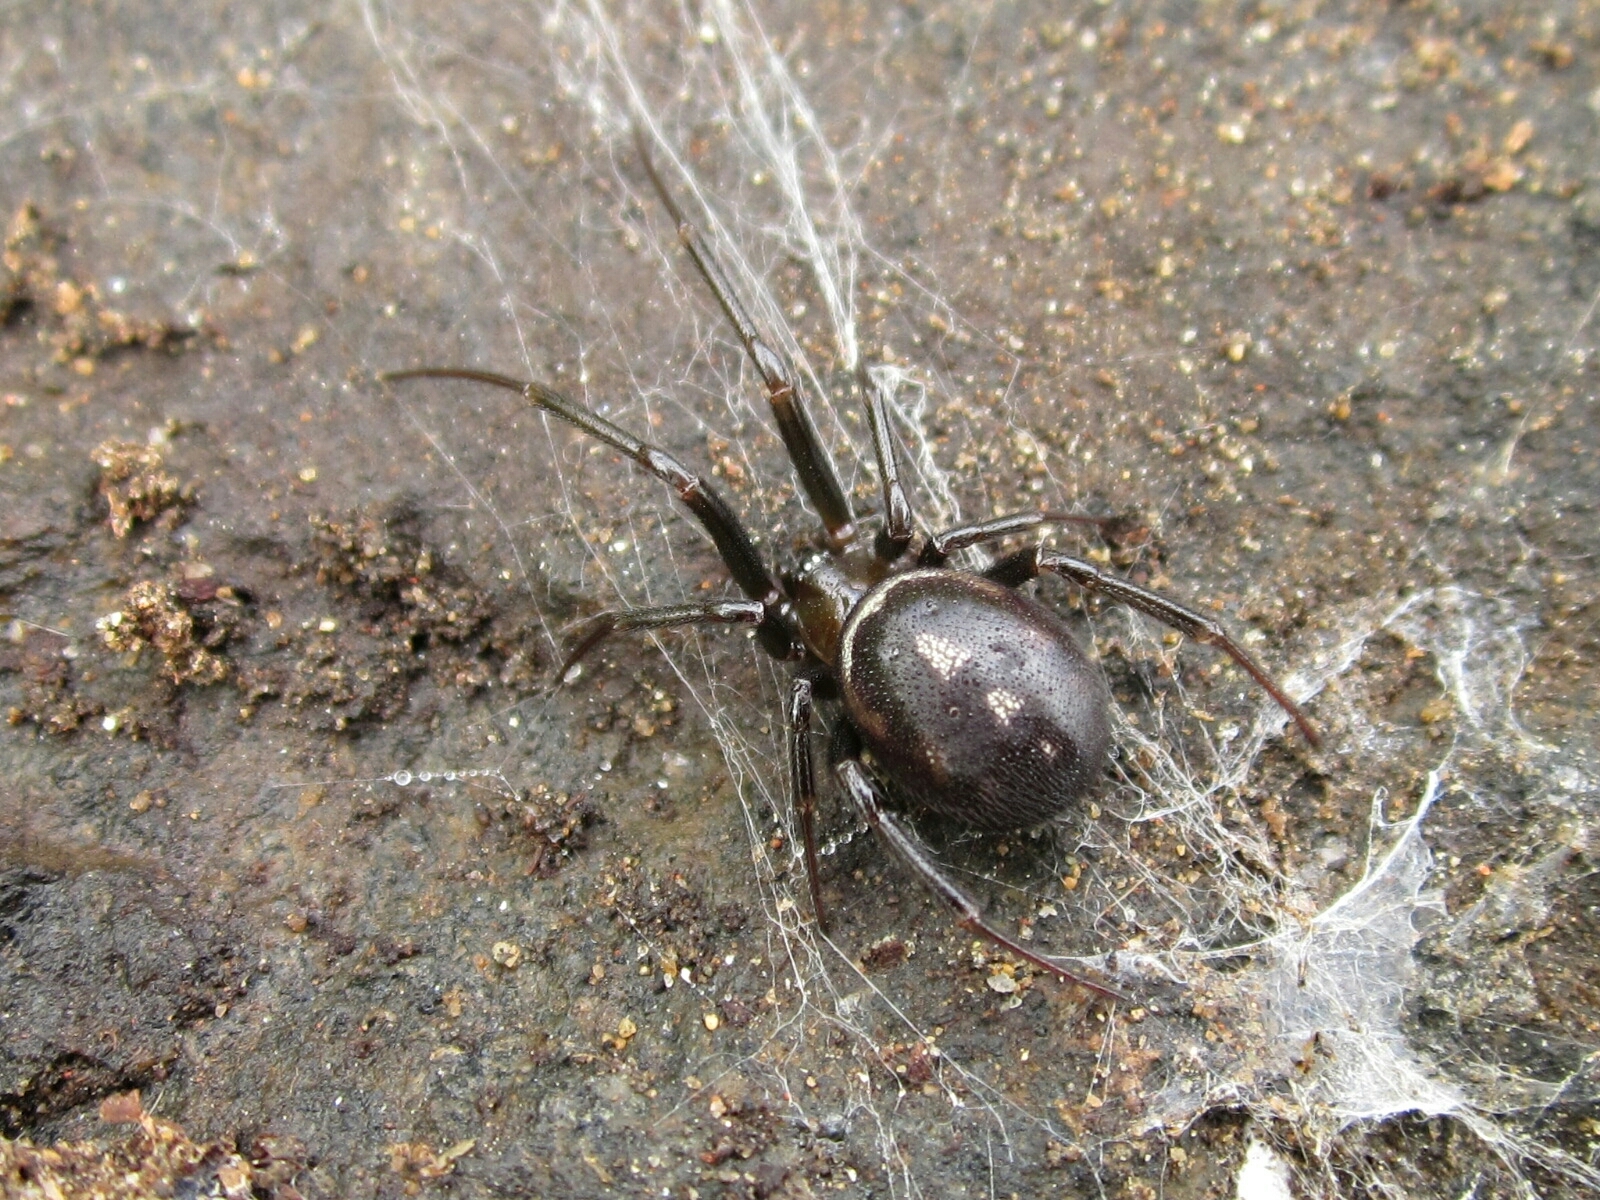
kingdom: Animalia
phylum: Arthropoda
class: Arachnida
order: Araneae
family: Theridiidae
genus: Steatoda
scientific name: Steatoda grossa
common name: False black widow
